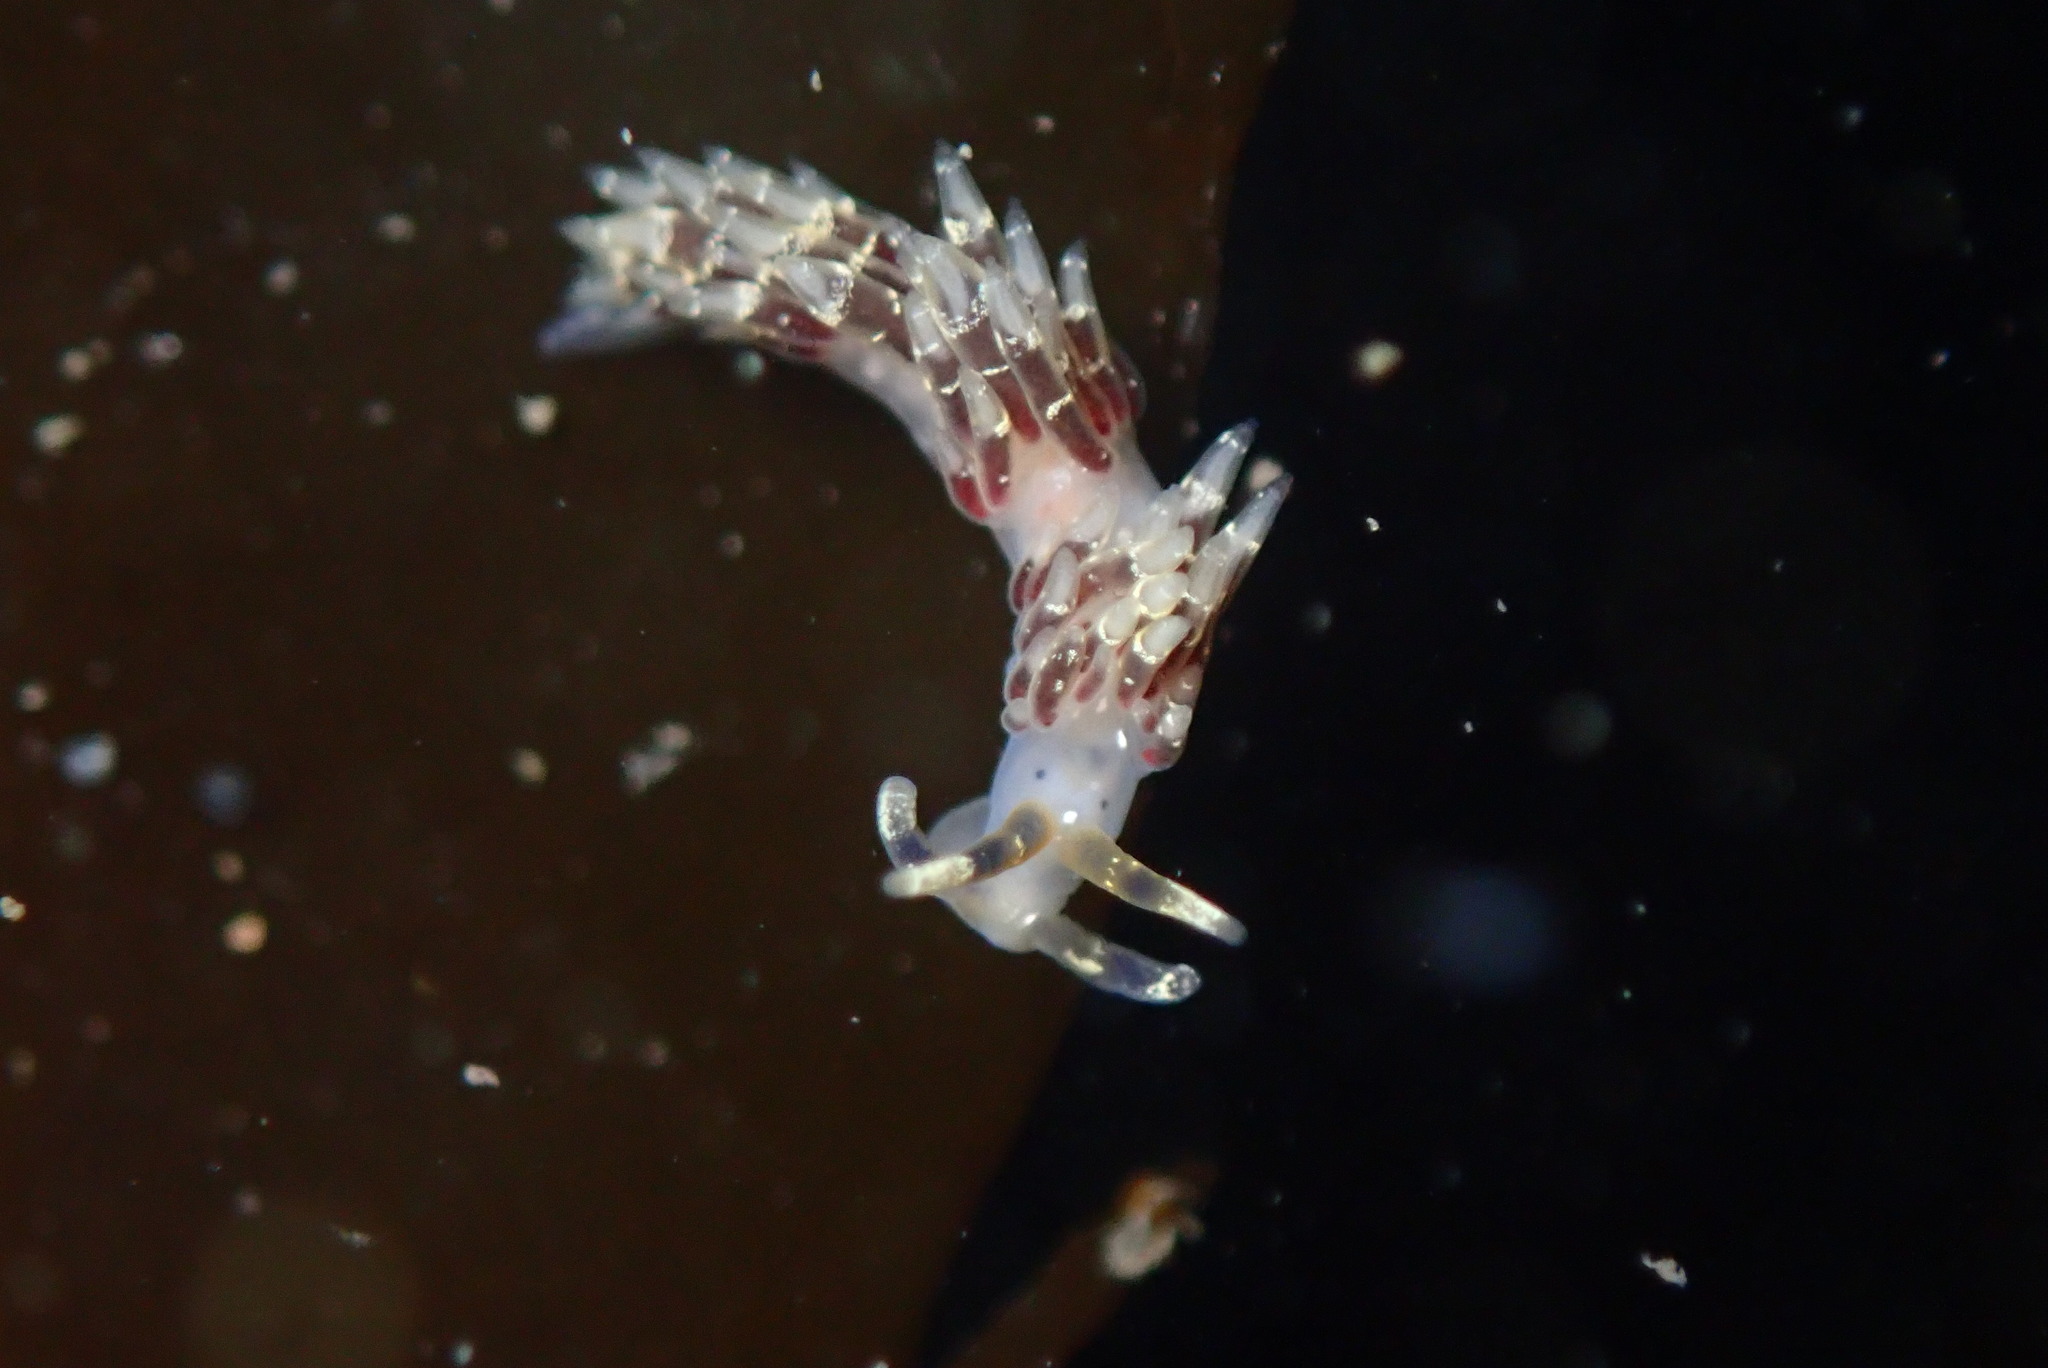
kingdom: Animalia
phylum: Mollusca
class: Gastropoda
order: Nudibranchia
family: Abronicidae
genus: Abronica
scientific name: Abronica abronia
